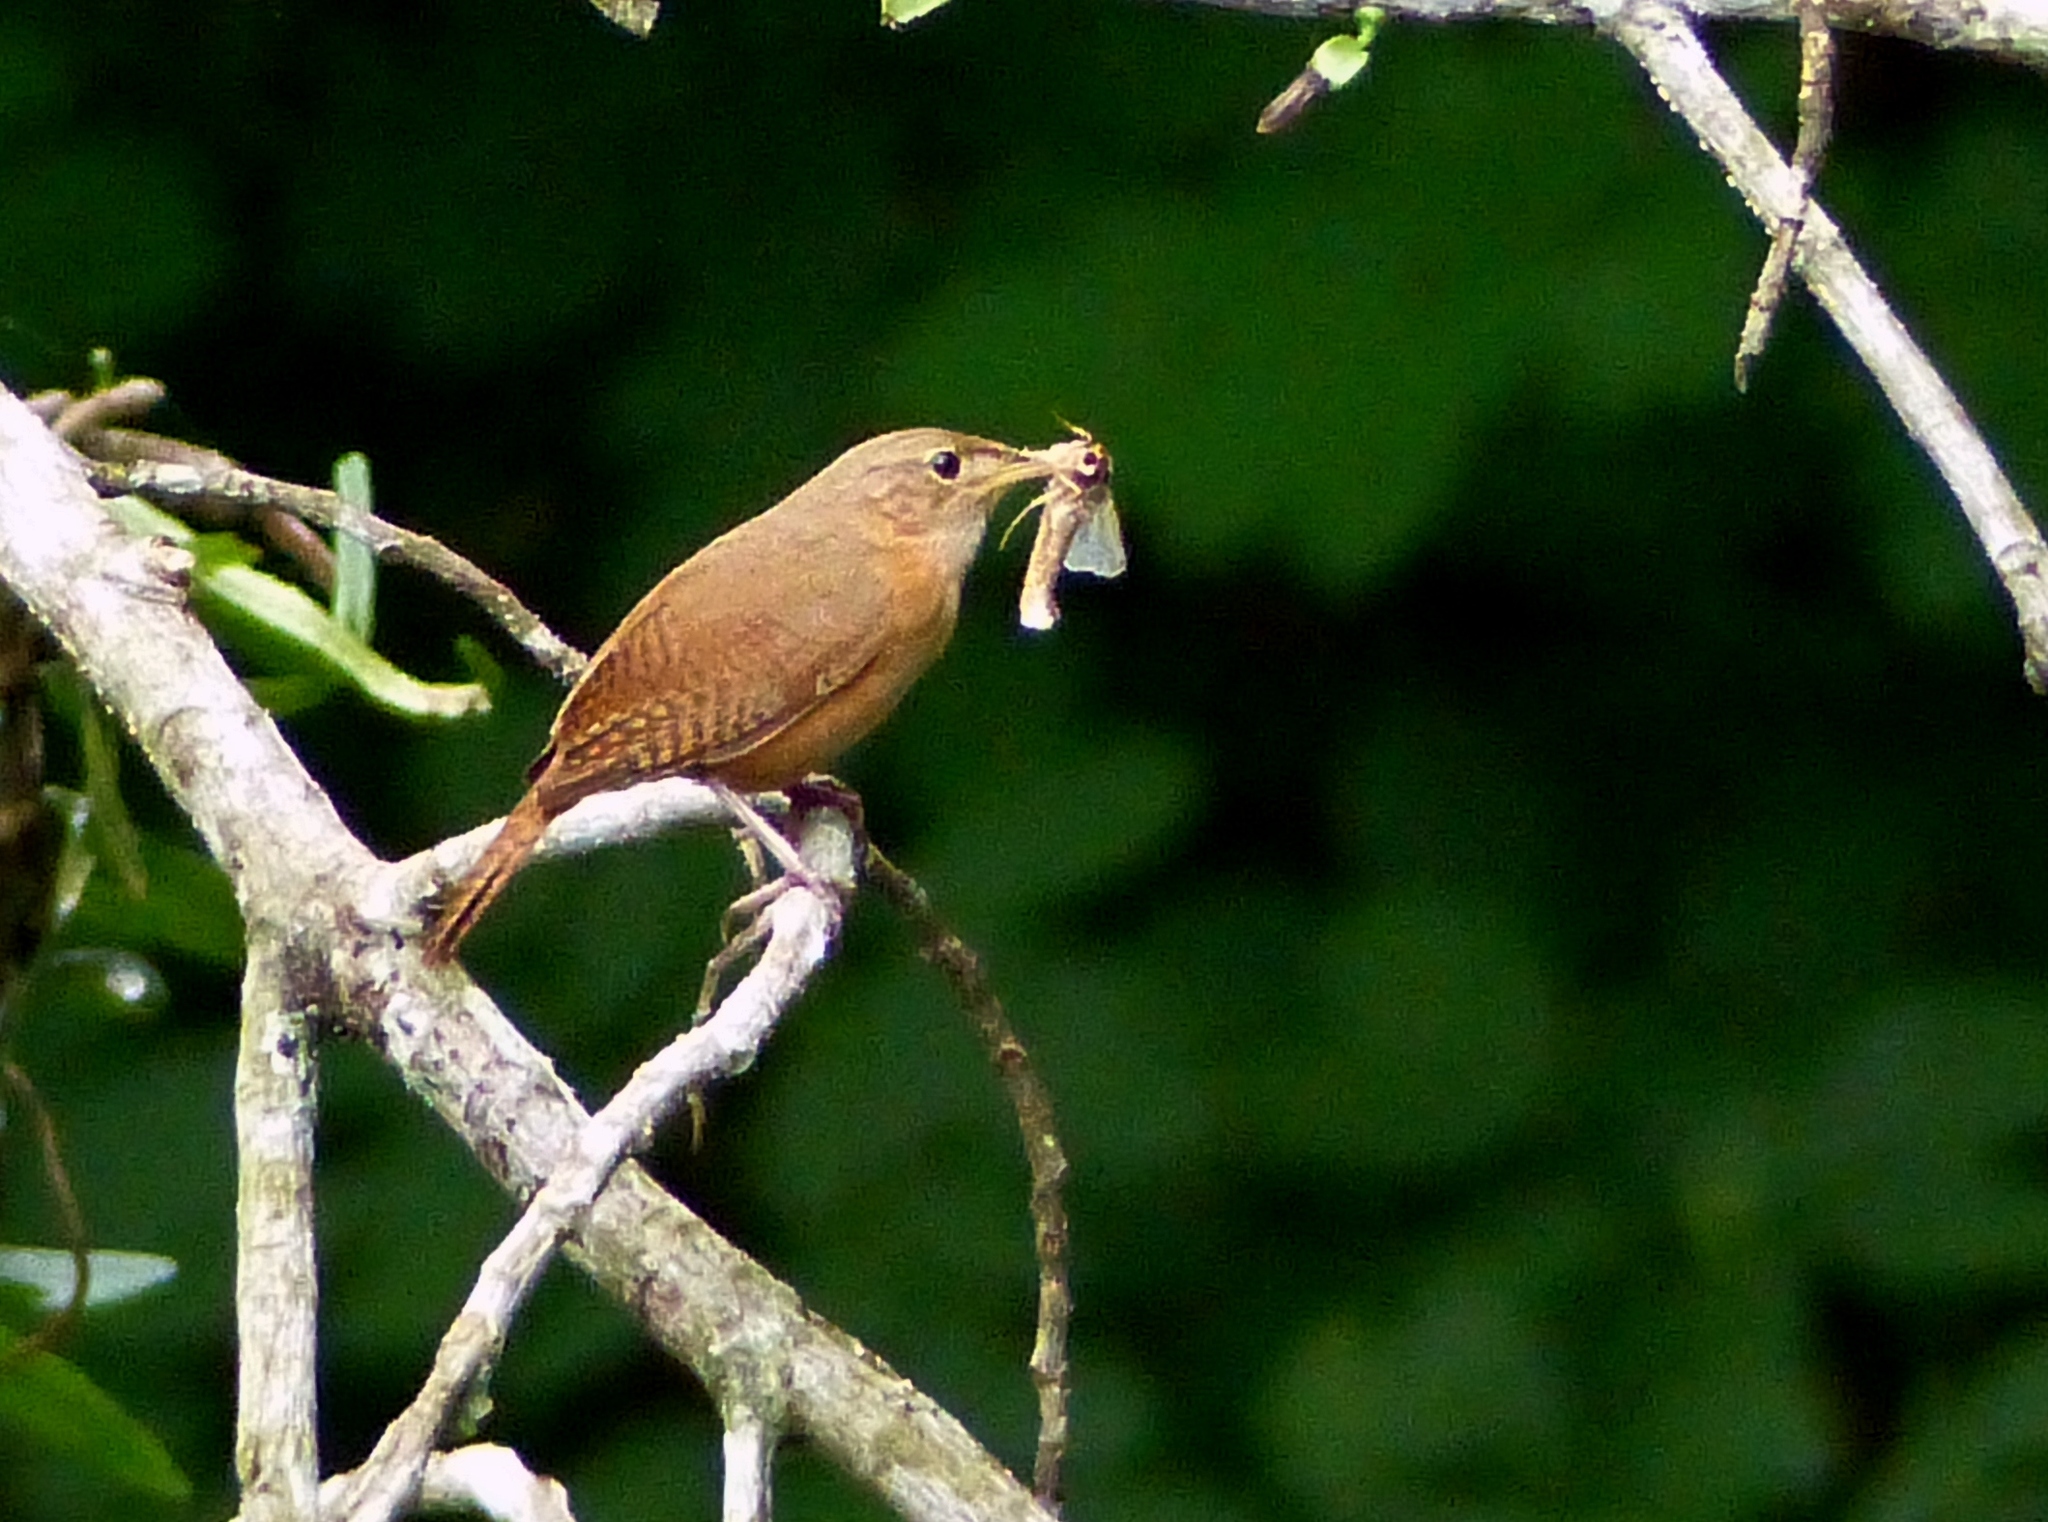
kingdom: Animalia
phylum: Chordata
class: Aves
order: Passeriformes
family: Troglodytidae
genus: Troglodytes
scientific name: Troglodytes aedon
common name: House wren
